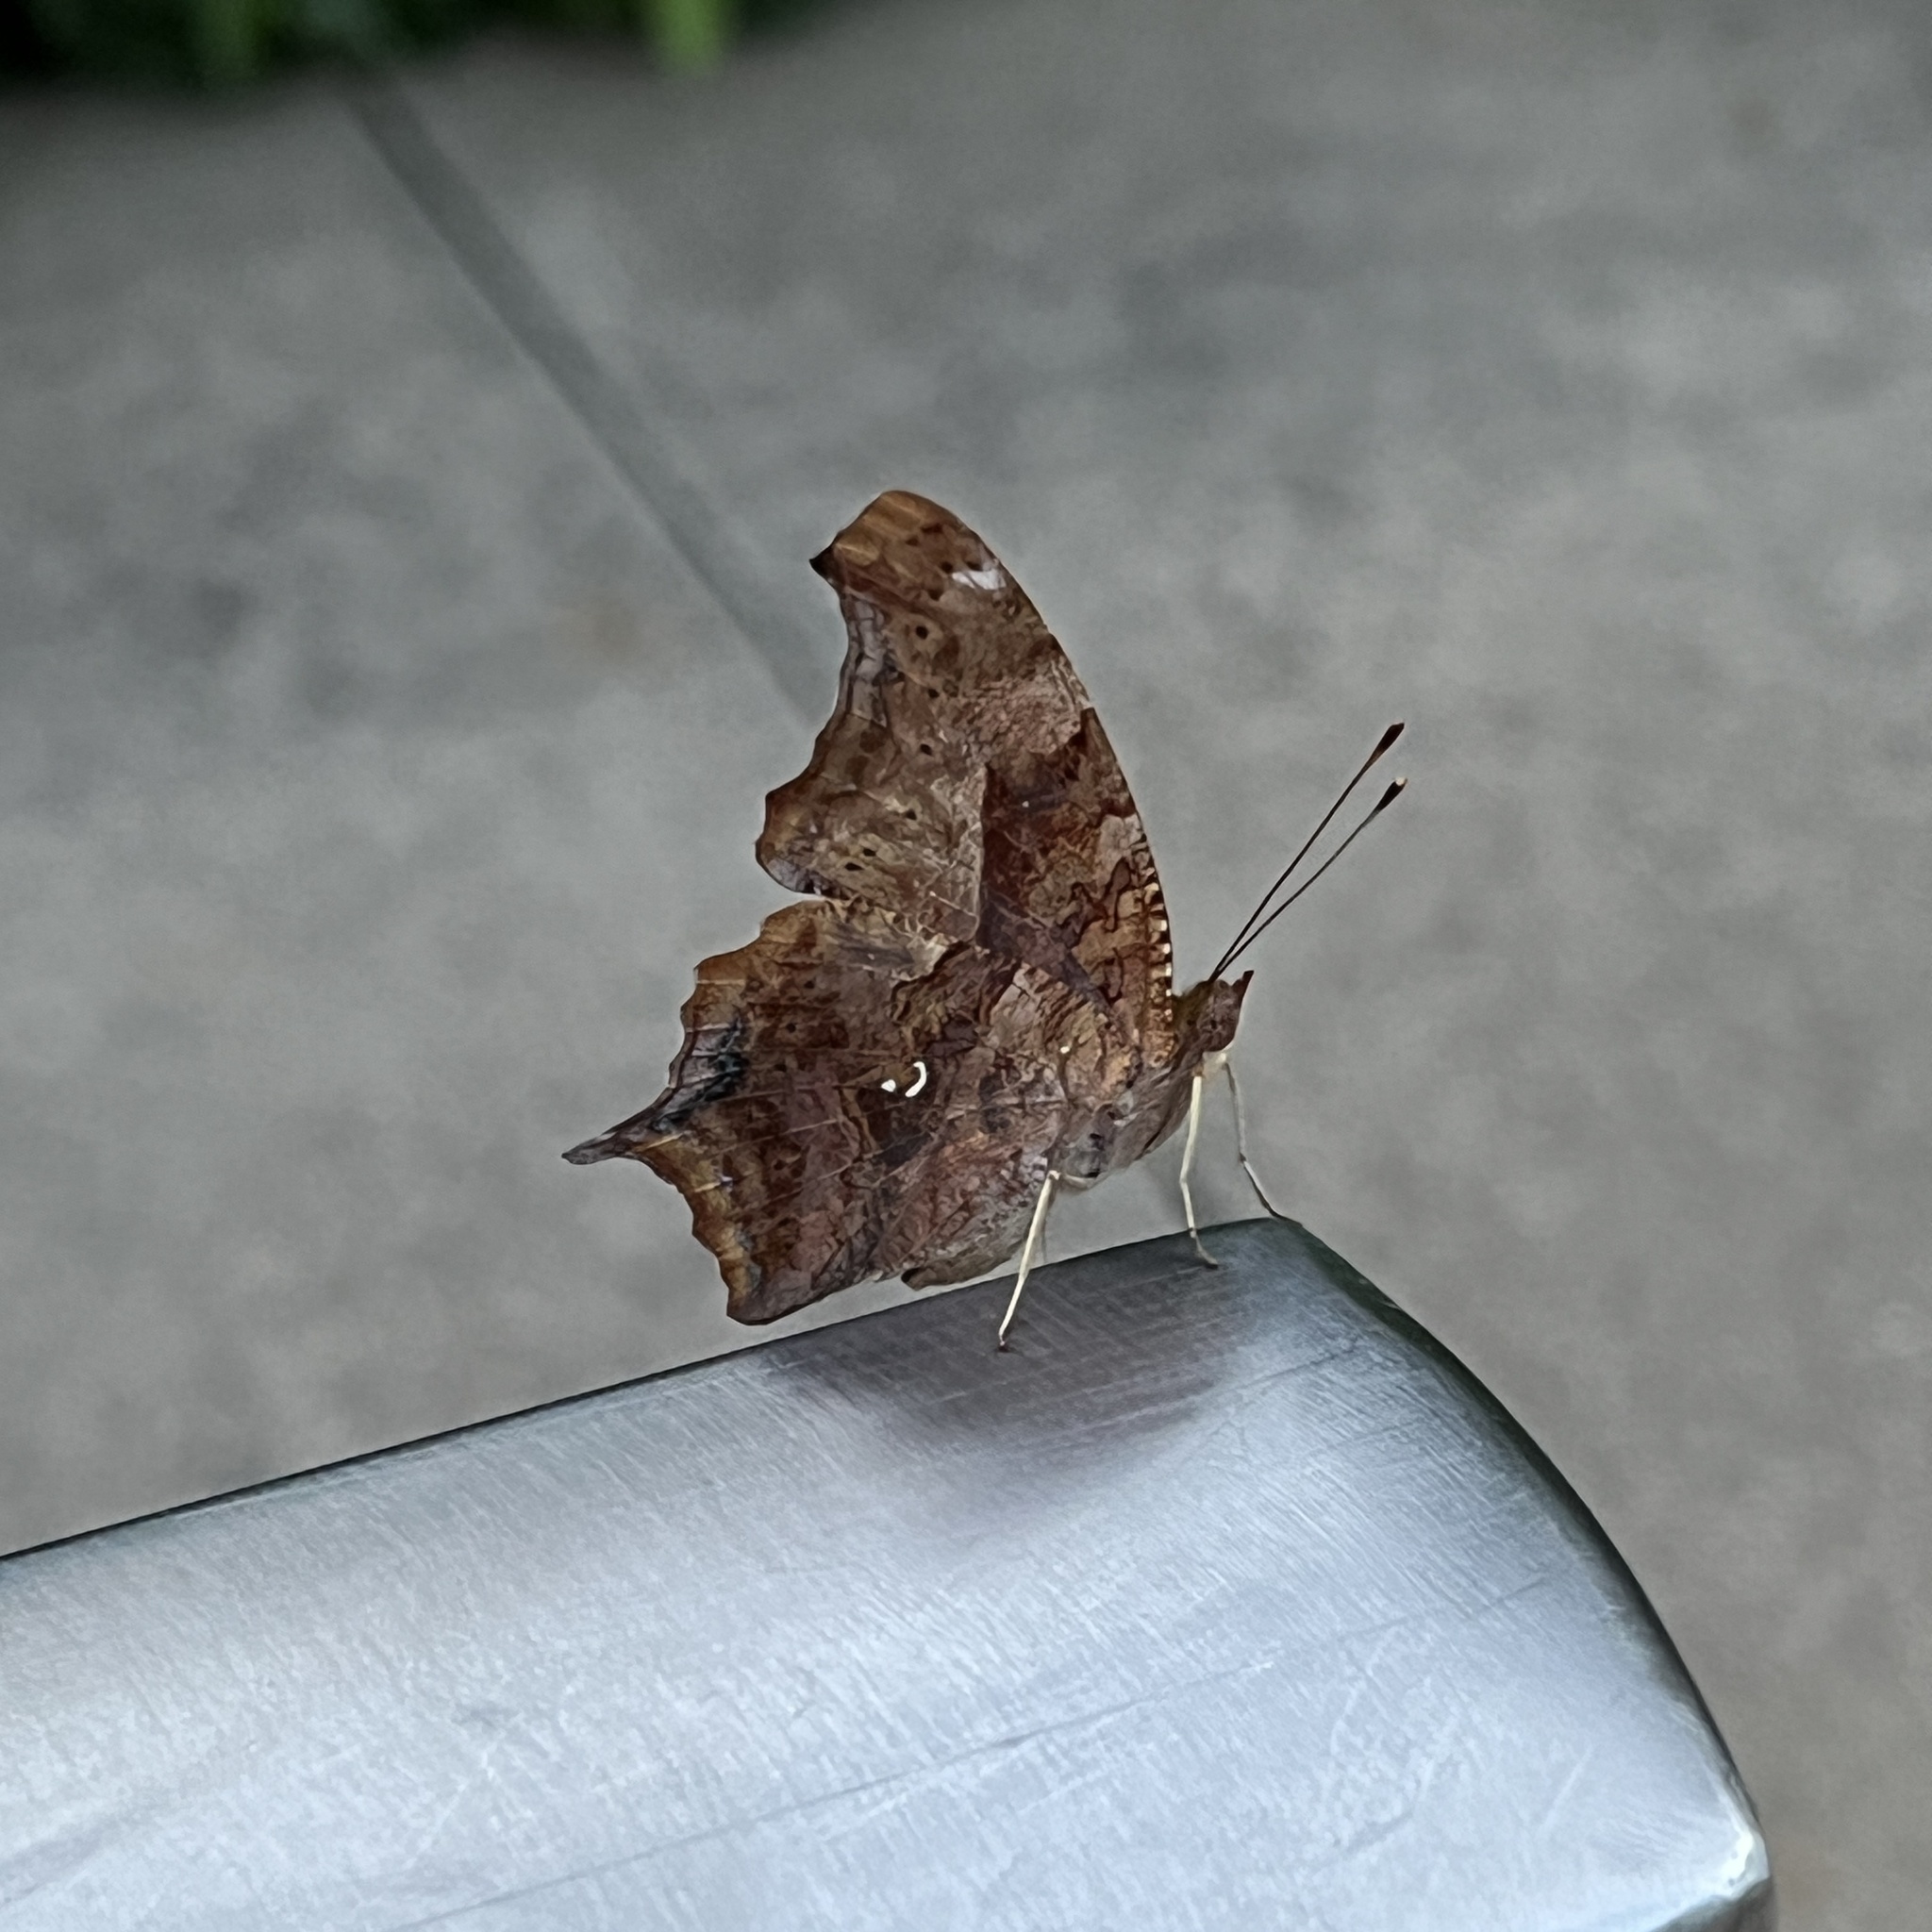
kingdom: Animalia
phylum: Arthropoda
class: Insecta
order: Lepidoptera
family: Nymphalidae
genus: Polygonia
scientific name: Polygonia interrogationis
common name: Question mark
